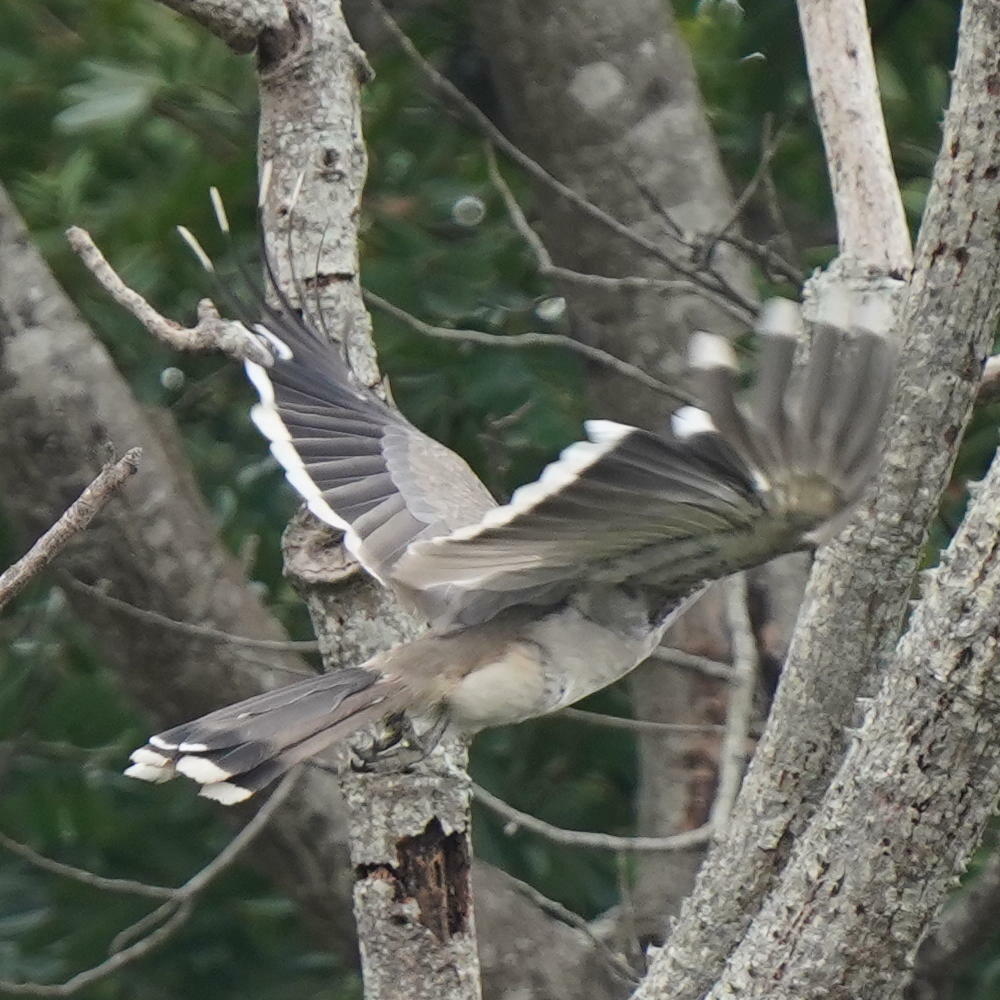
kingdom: Animalia
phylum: Chordata
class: Aves
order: Bucerotiformes
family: Bucerotidae
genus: Ocyceros
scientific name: Ocyceros birostris
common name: Indian grey hornbill
